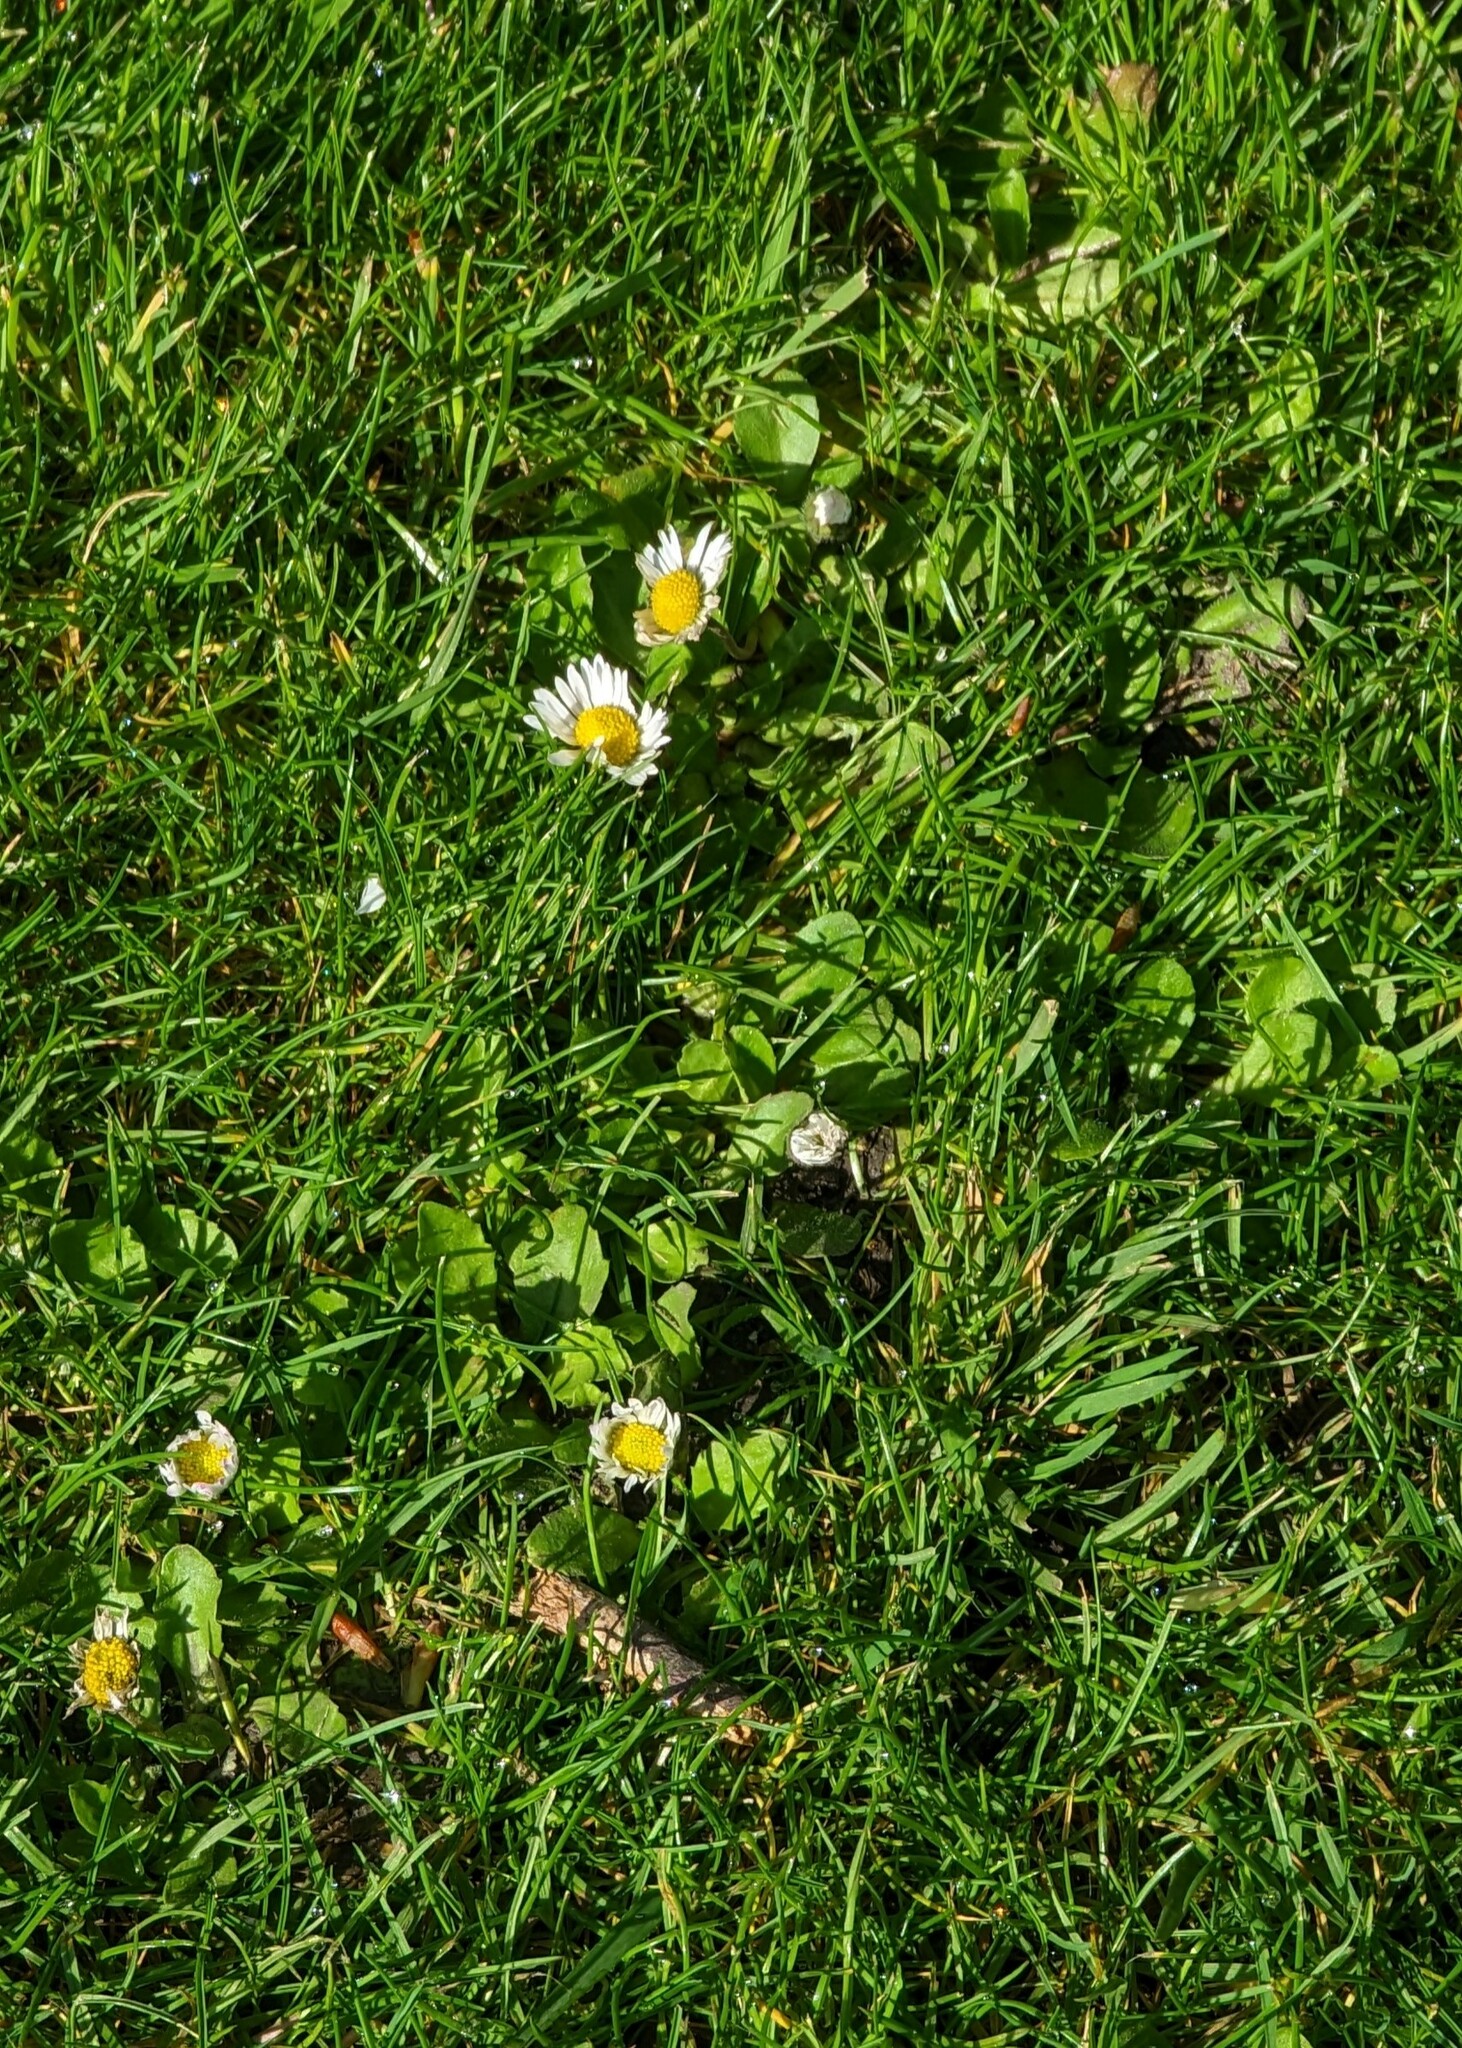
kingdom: Plantae
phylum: Tracheophyta
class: Magnoliopsida
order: Asterales
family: Asteraceae
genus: Bellis
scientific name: Bellis perennis
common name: Lawndaisy
